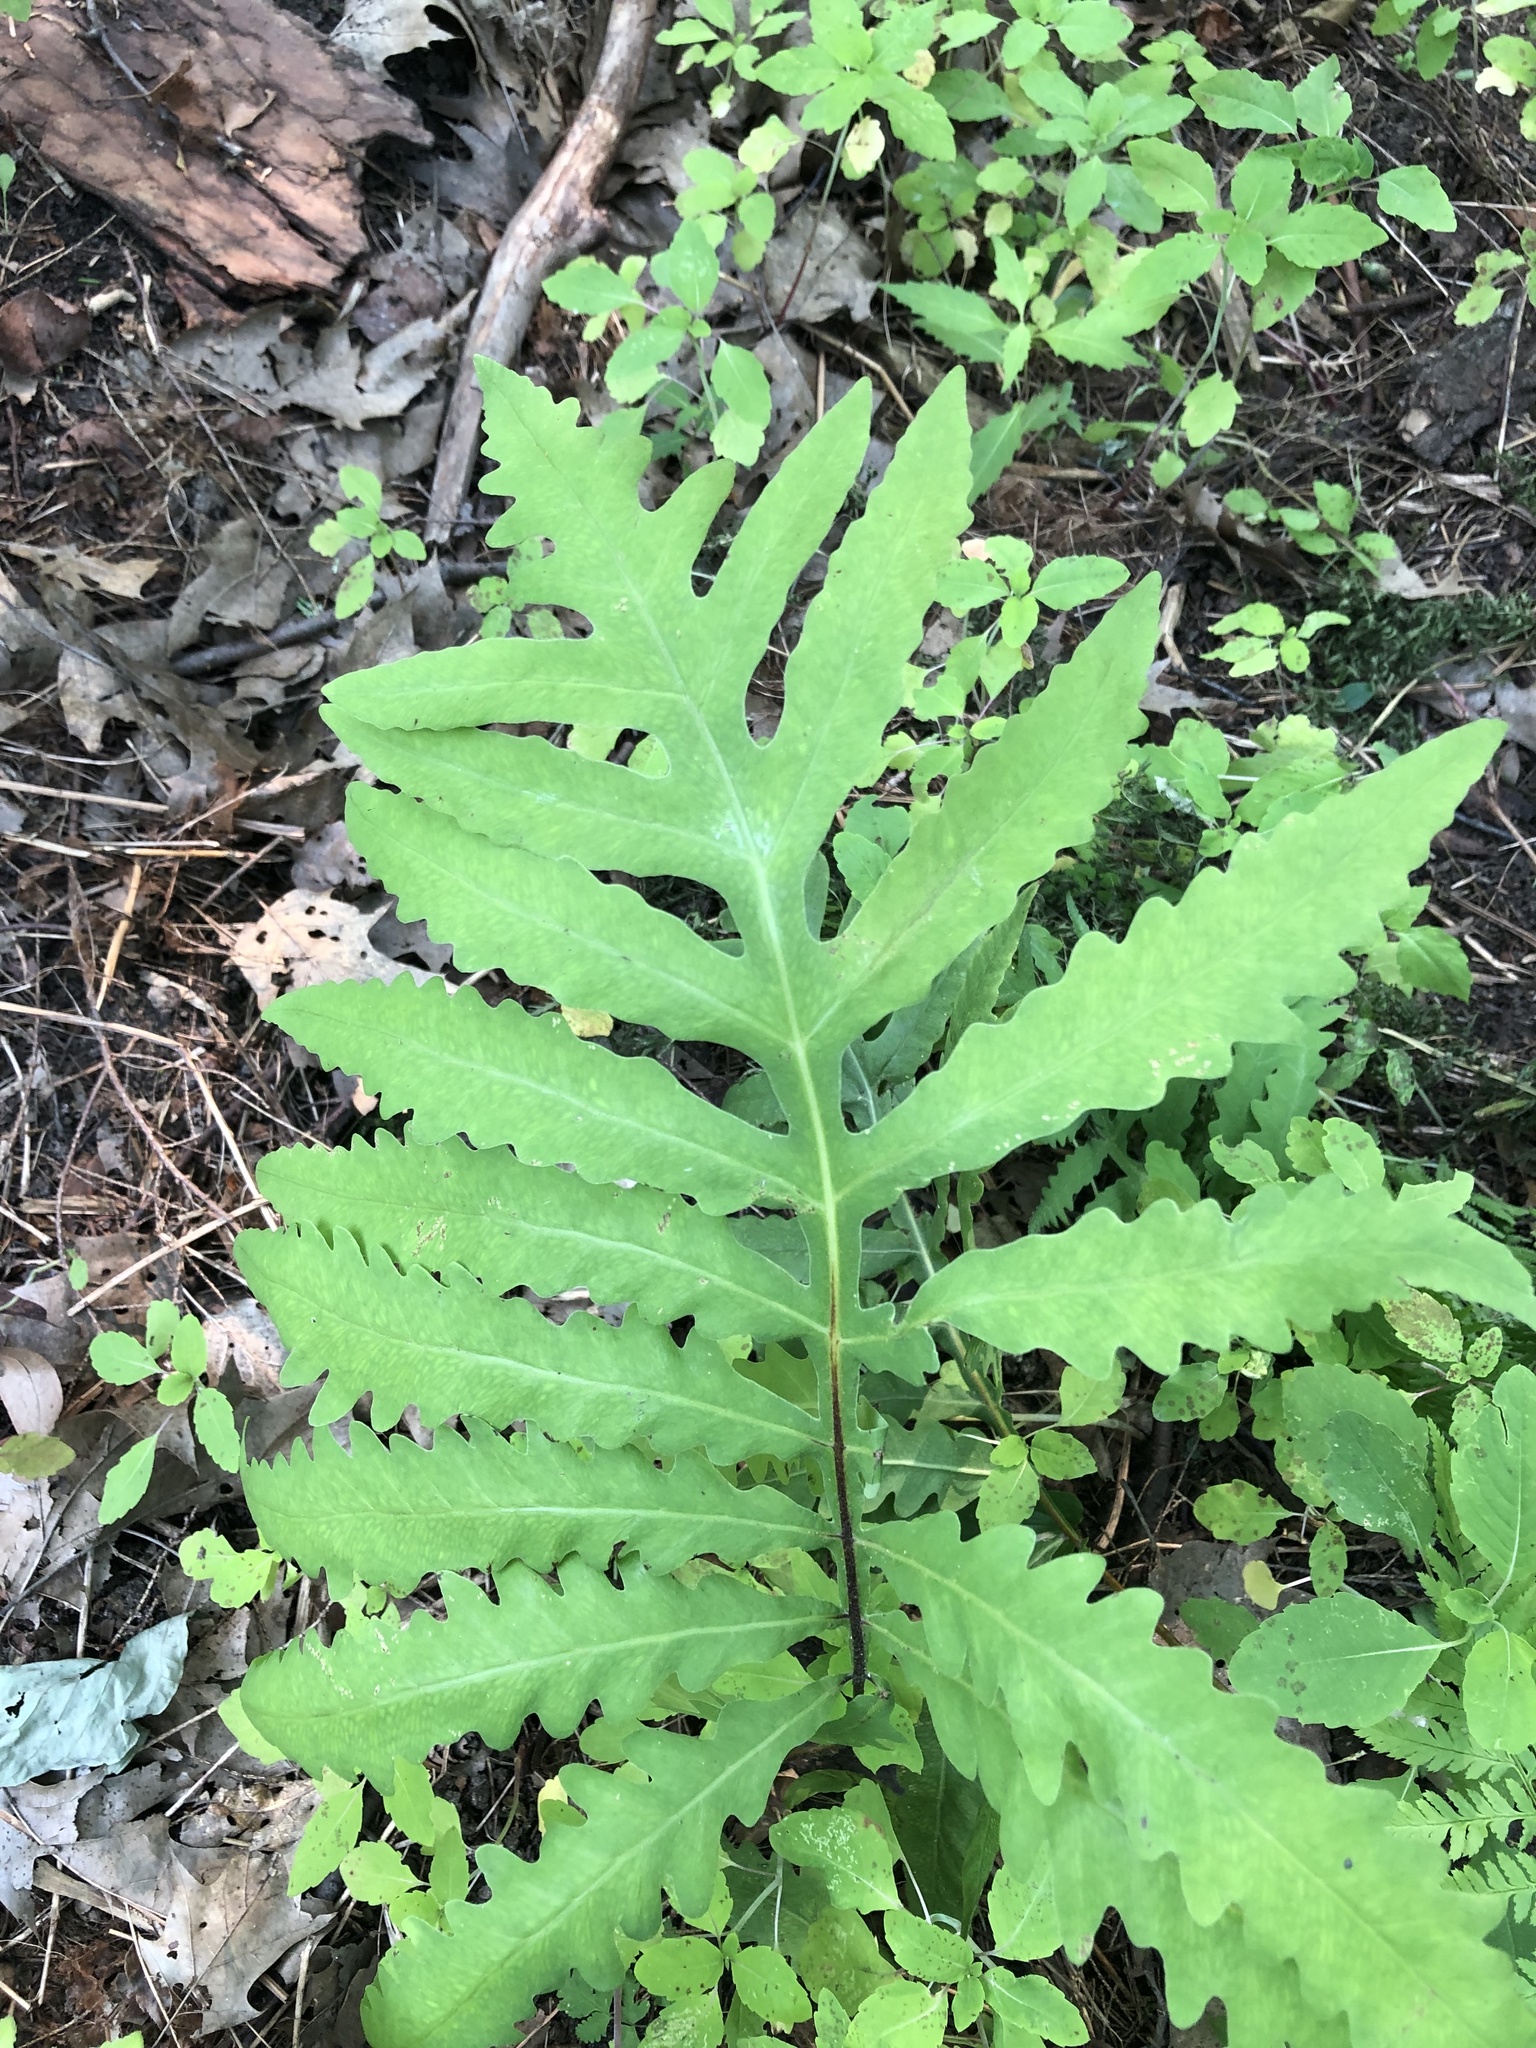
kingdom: Plantae
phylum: Tracheophyta
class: Polypodiopsida
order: Polypodiales
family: Onocleaceae
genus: Onoclea
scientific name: Onoclea sensibilis
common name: Sensitive fern
